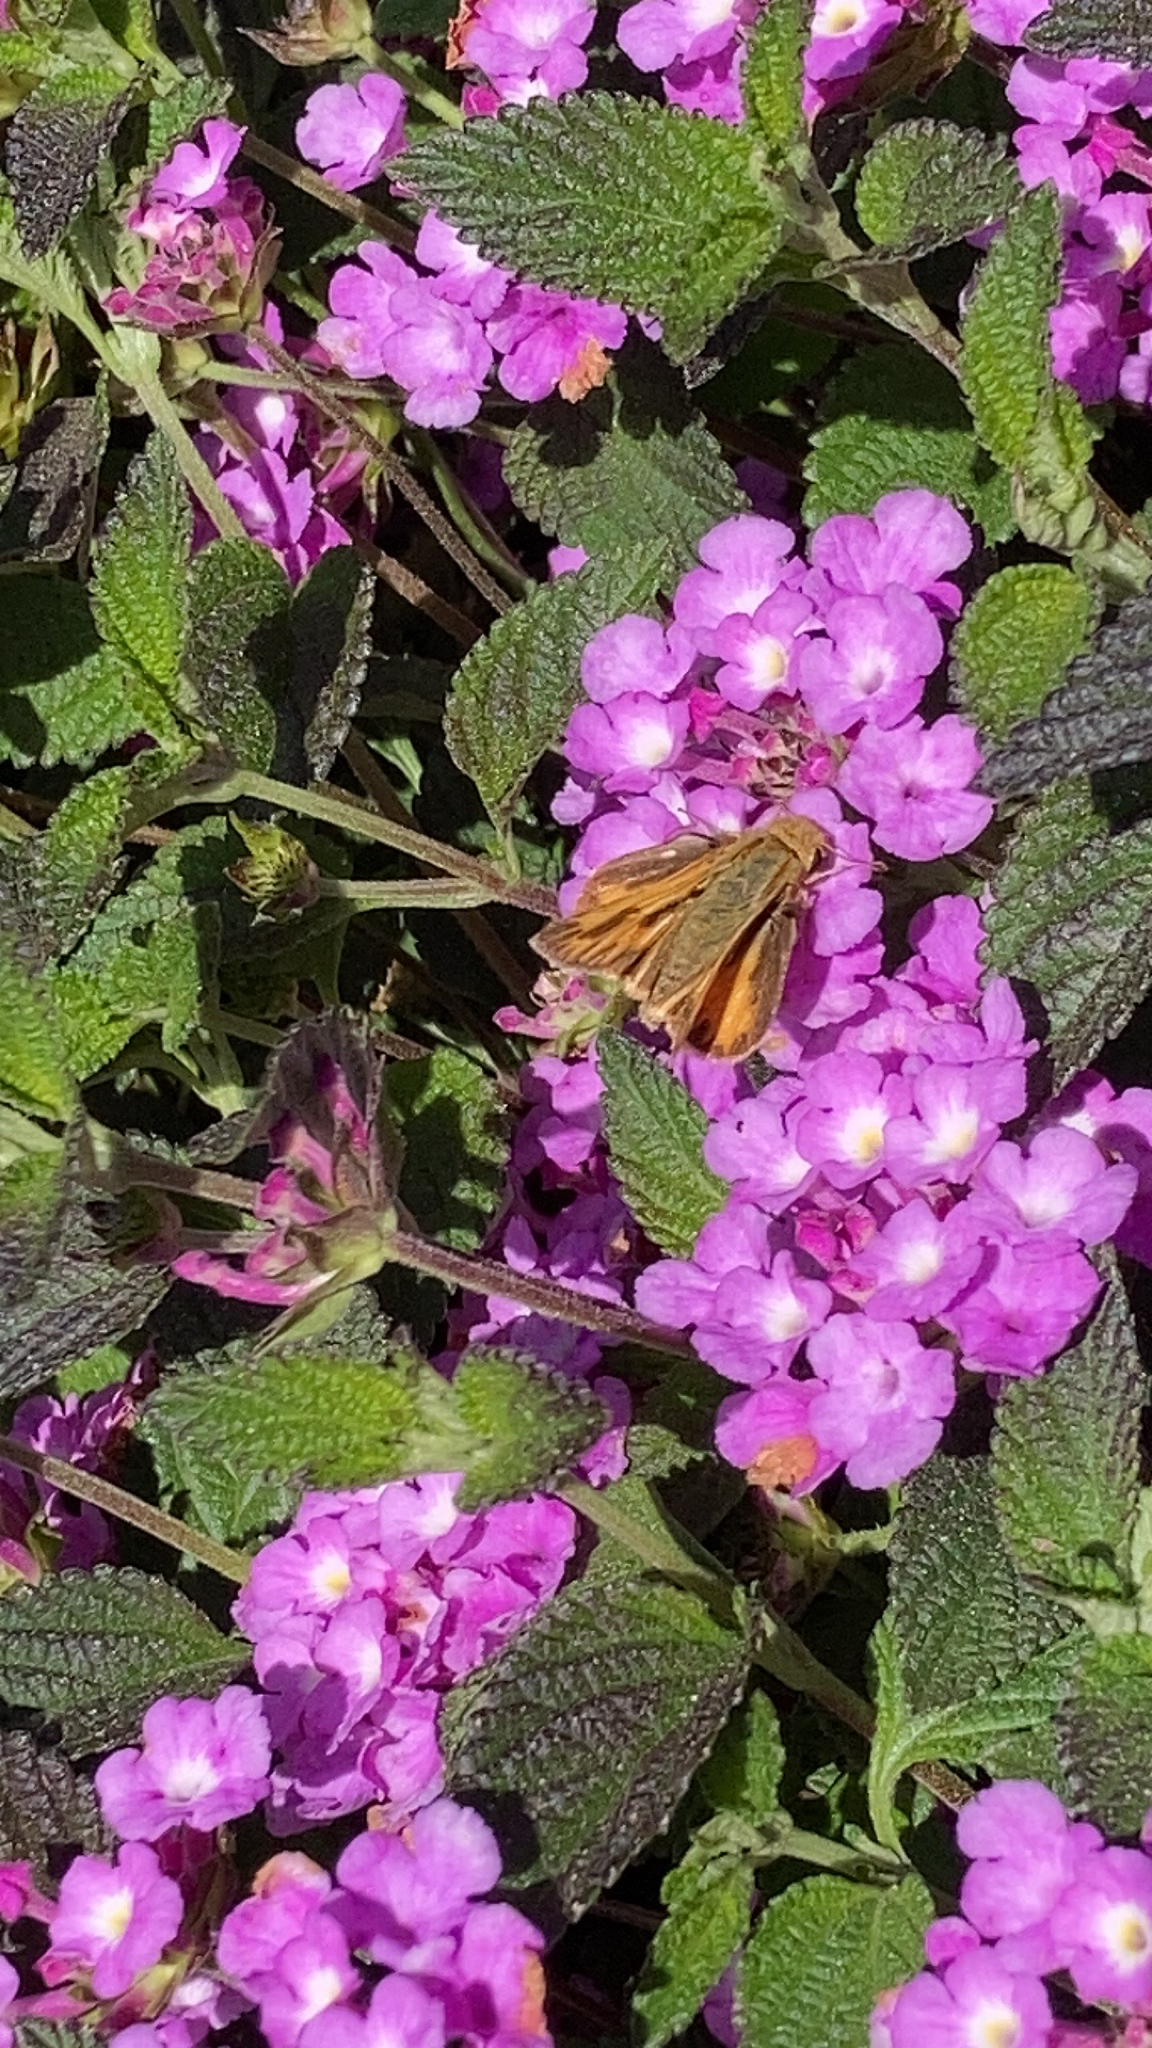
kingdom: Animalia
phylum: Arthropoda
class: Insecta
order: Lepidoptera
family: Hesperiidae
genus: Hylephila
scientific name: Hylephila phyleus
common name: Fiery skipper
